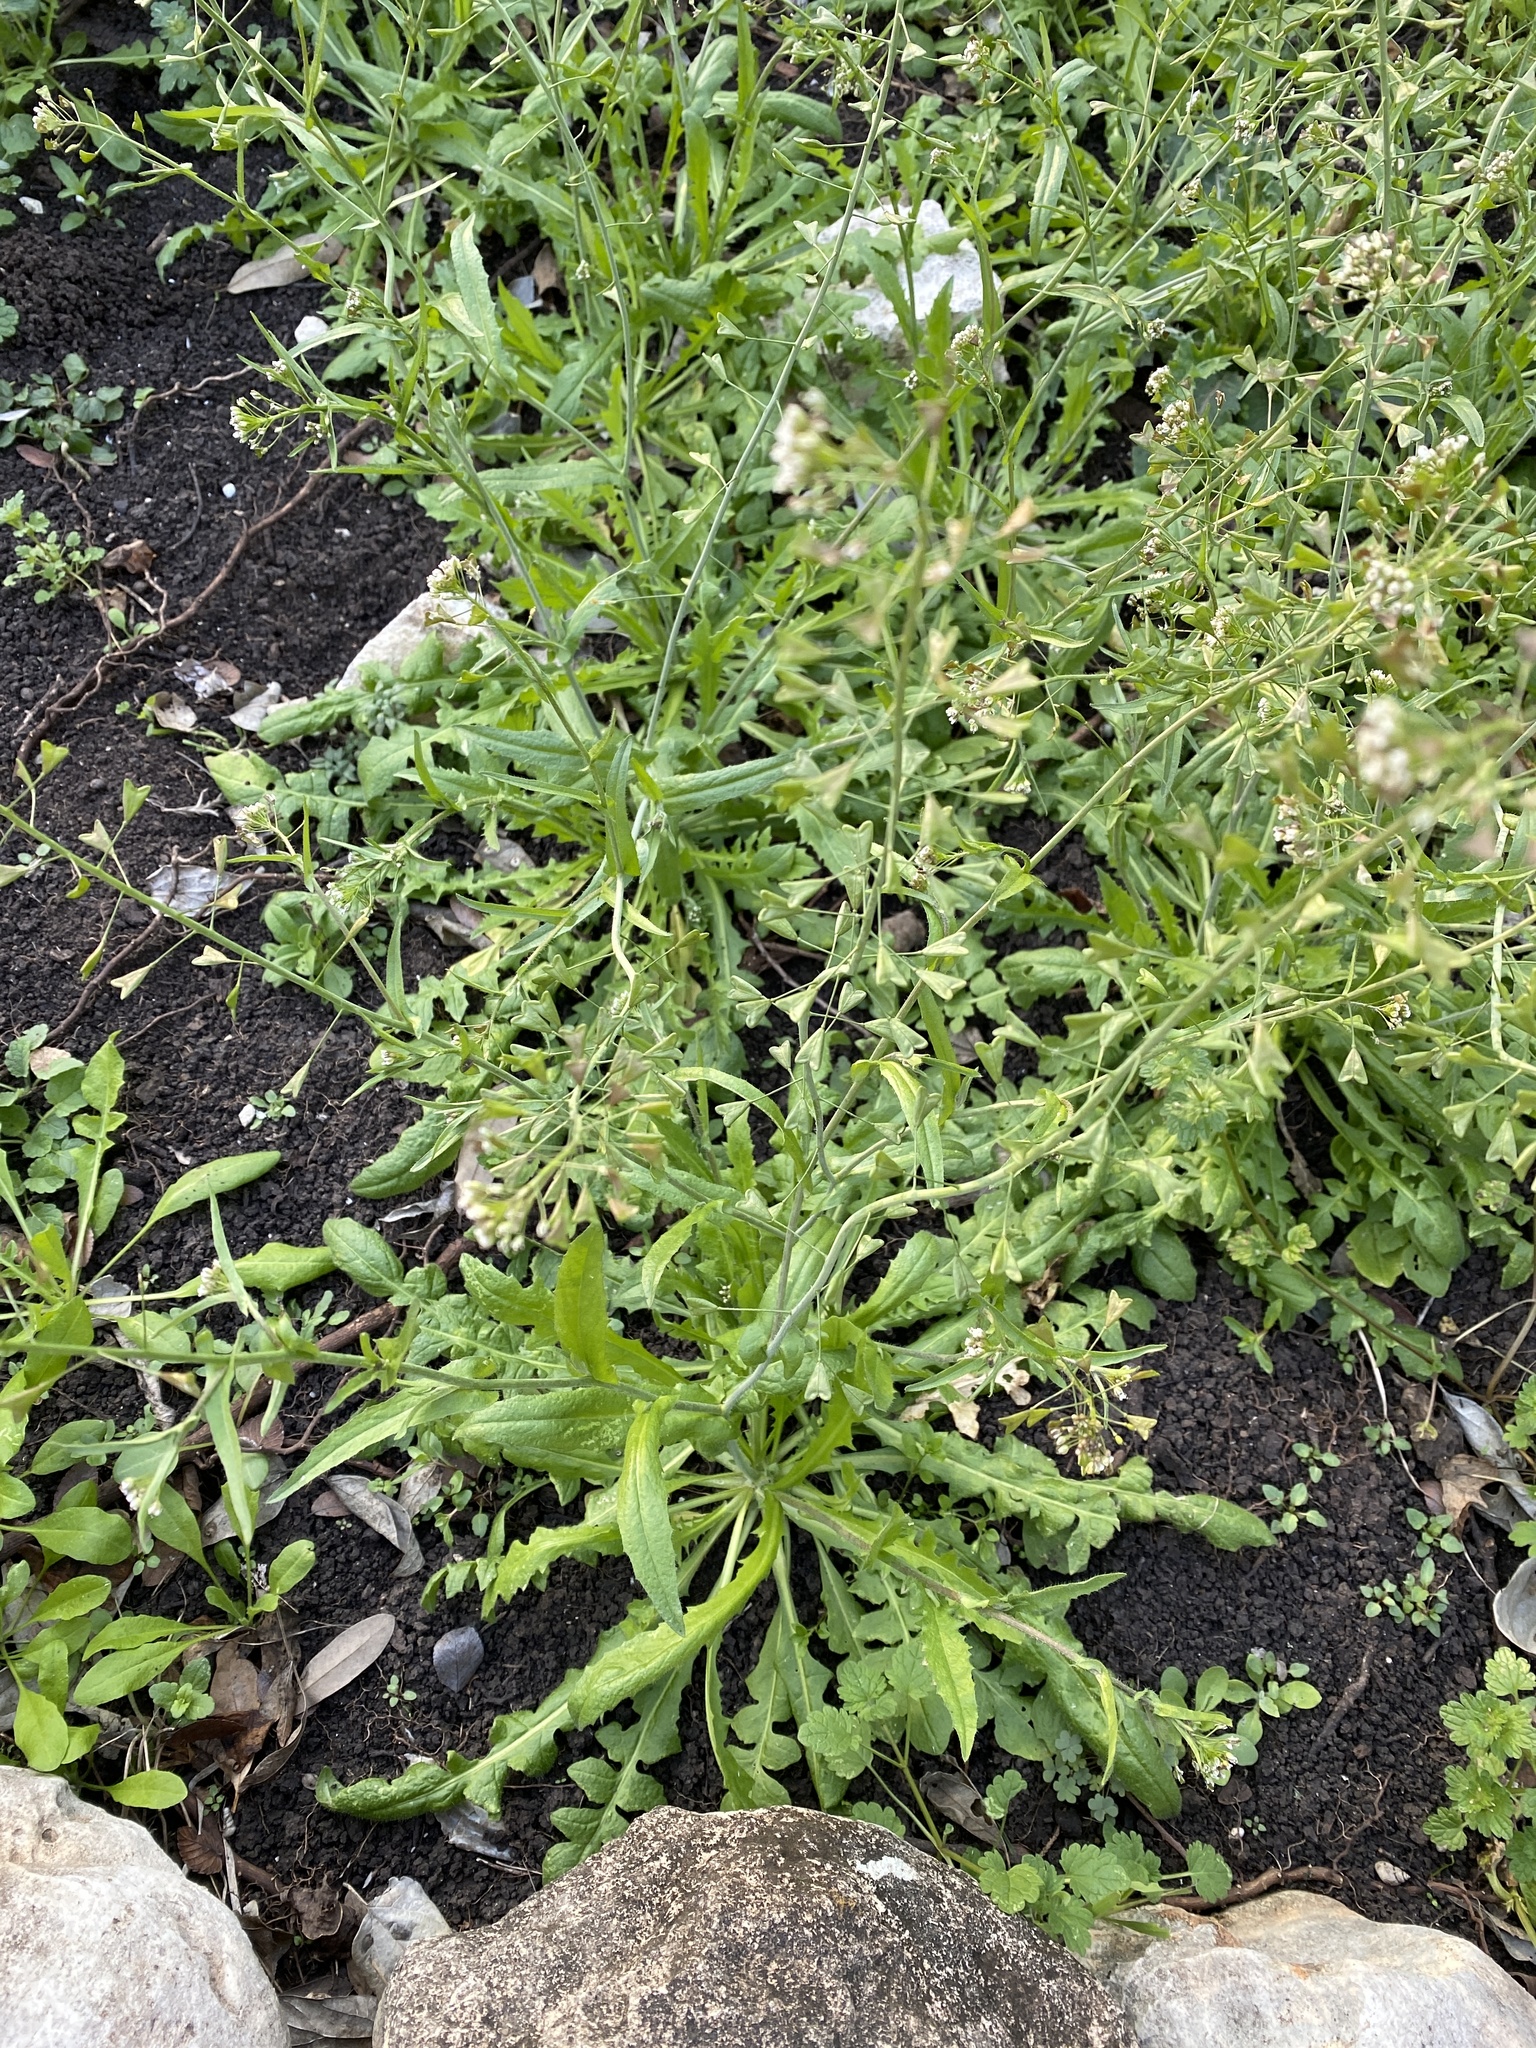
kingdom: Plantae
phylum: Tracheophyta
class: Magnoliopsida
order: Brassicales
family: Brassicaceae
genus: Capsella
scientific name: Capsella bursa-pastoris
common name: Shepherd's purse
